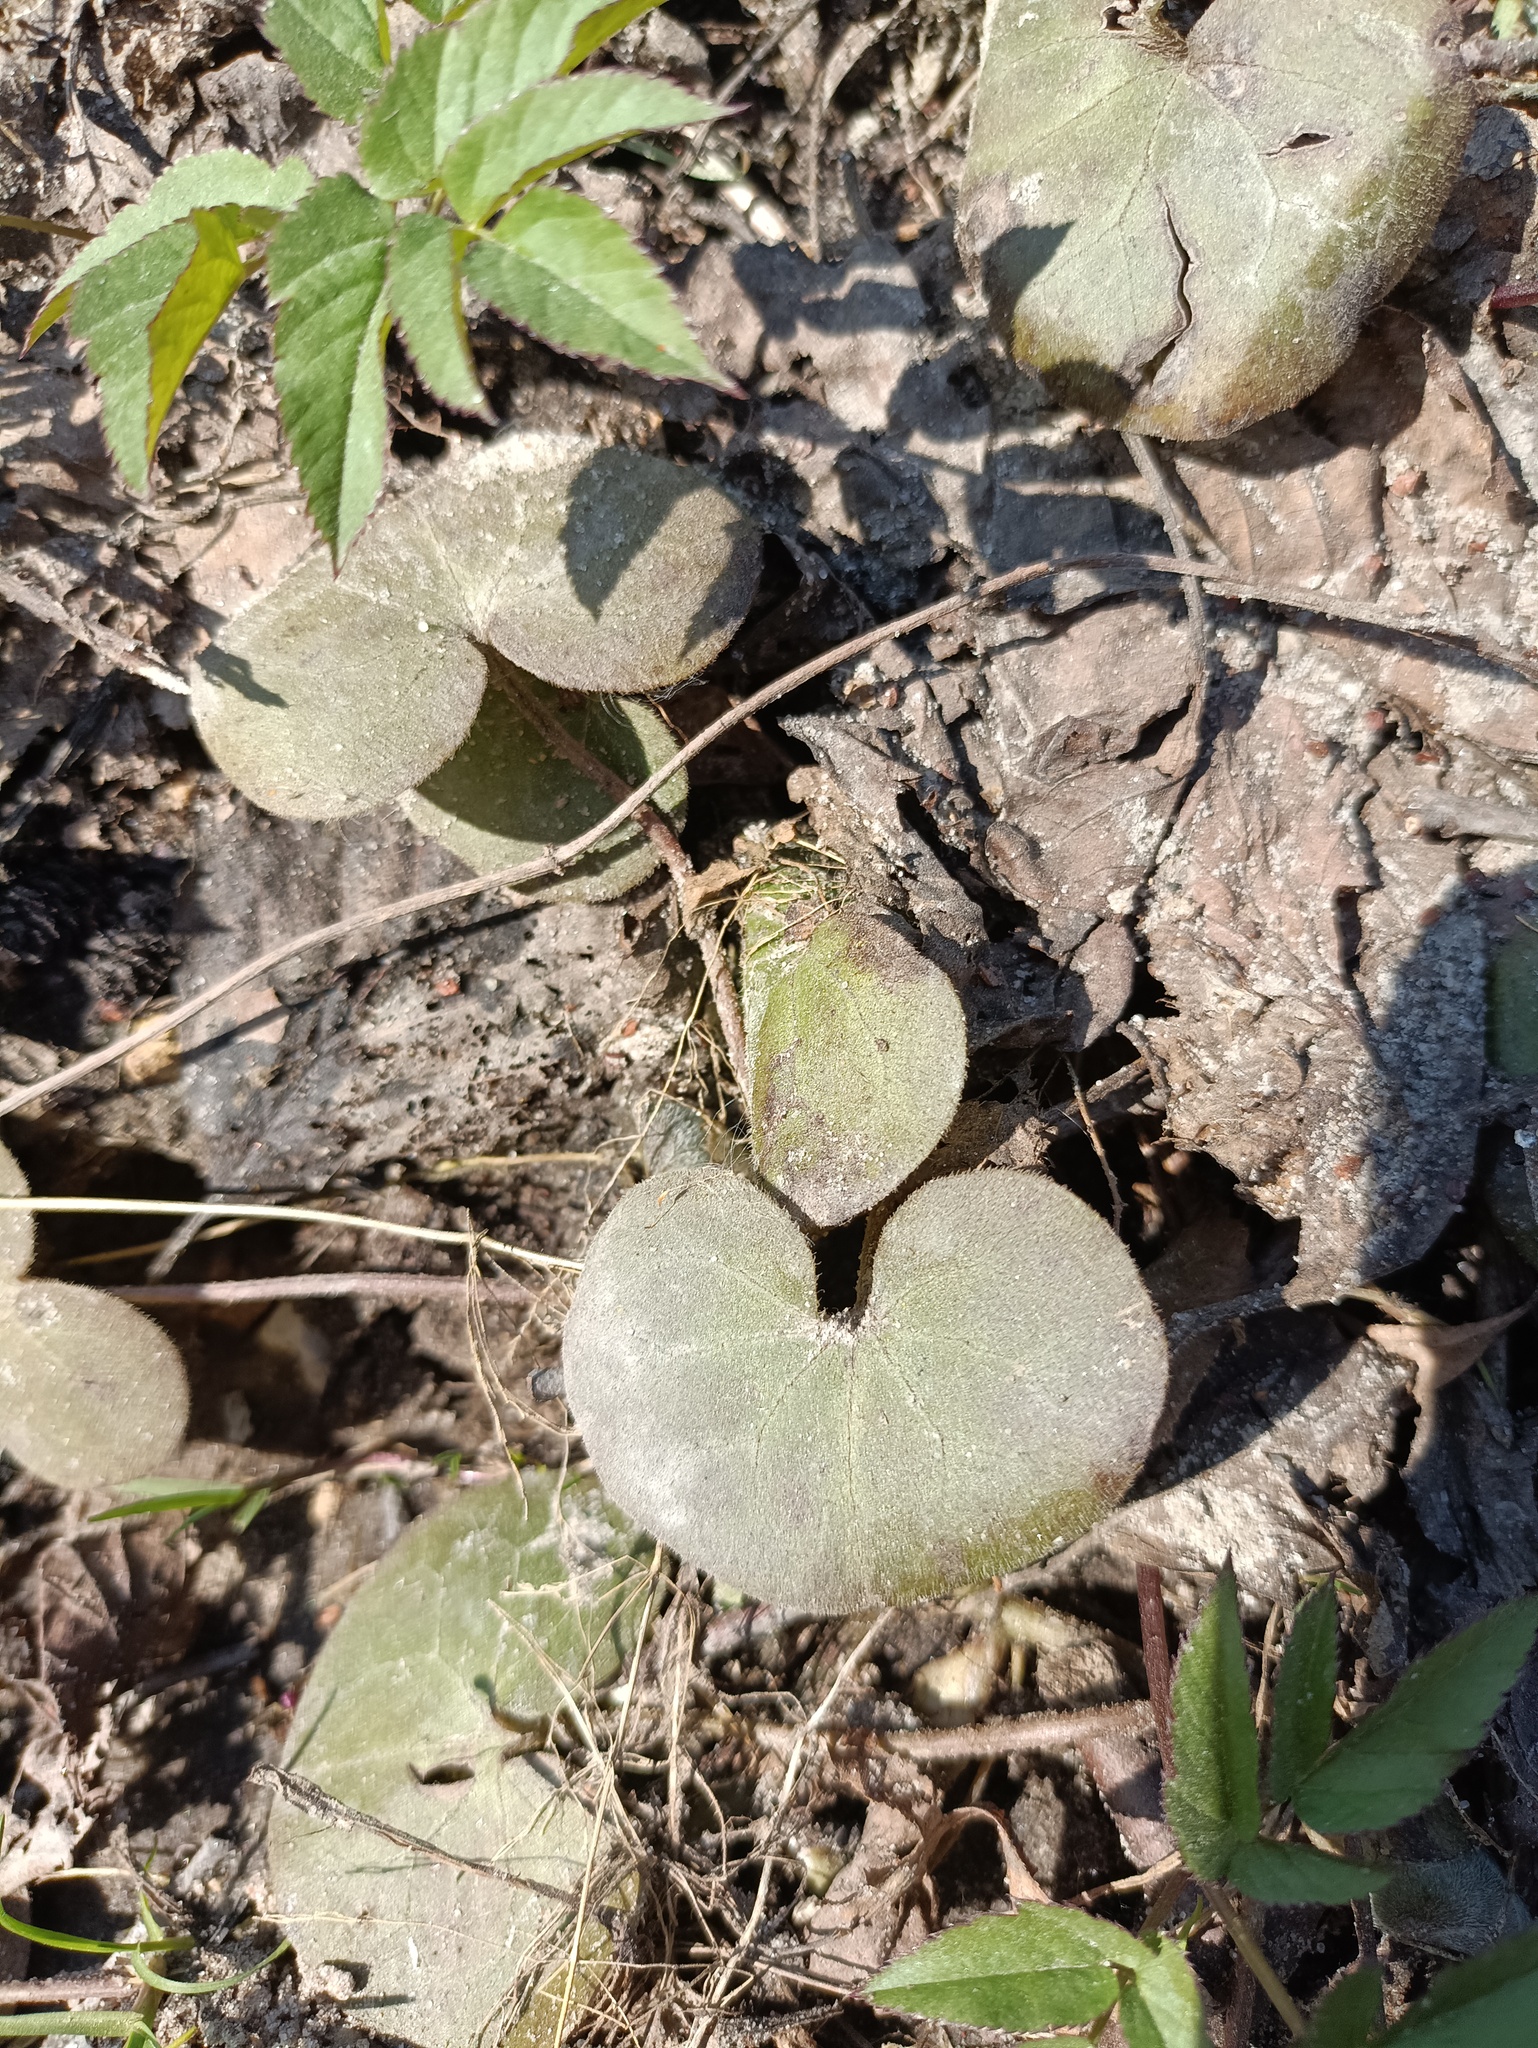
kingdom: Plantae
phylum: Tracheophyta
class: Magnoliopsida
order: Piperales
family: Aristolochiaceae
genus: Asarum
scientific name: Asarum europaeum
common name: Asarabacca
